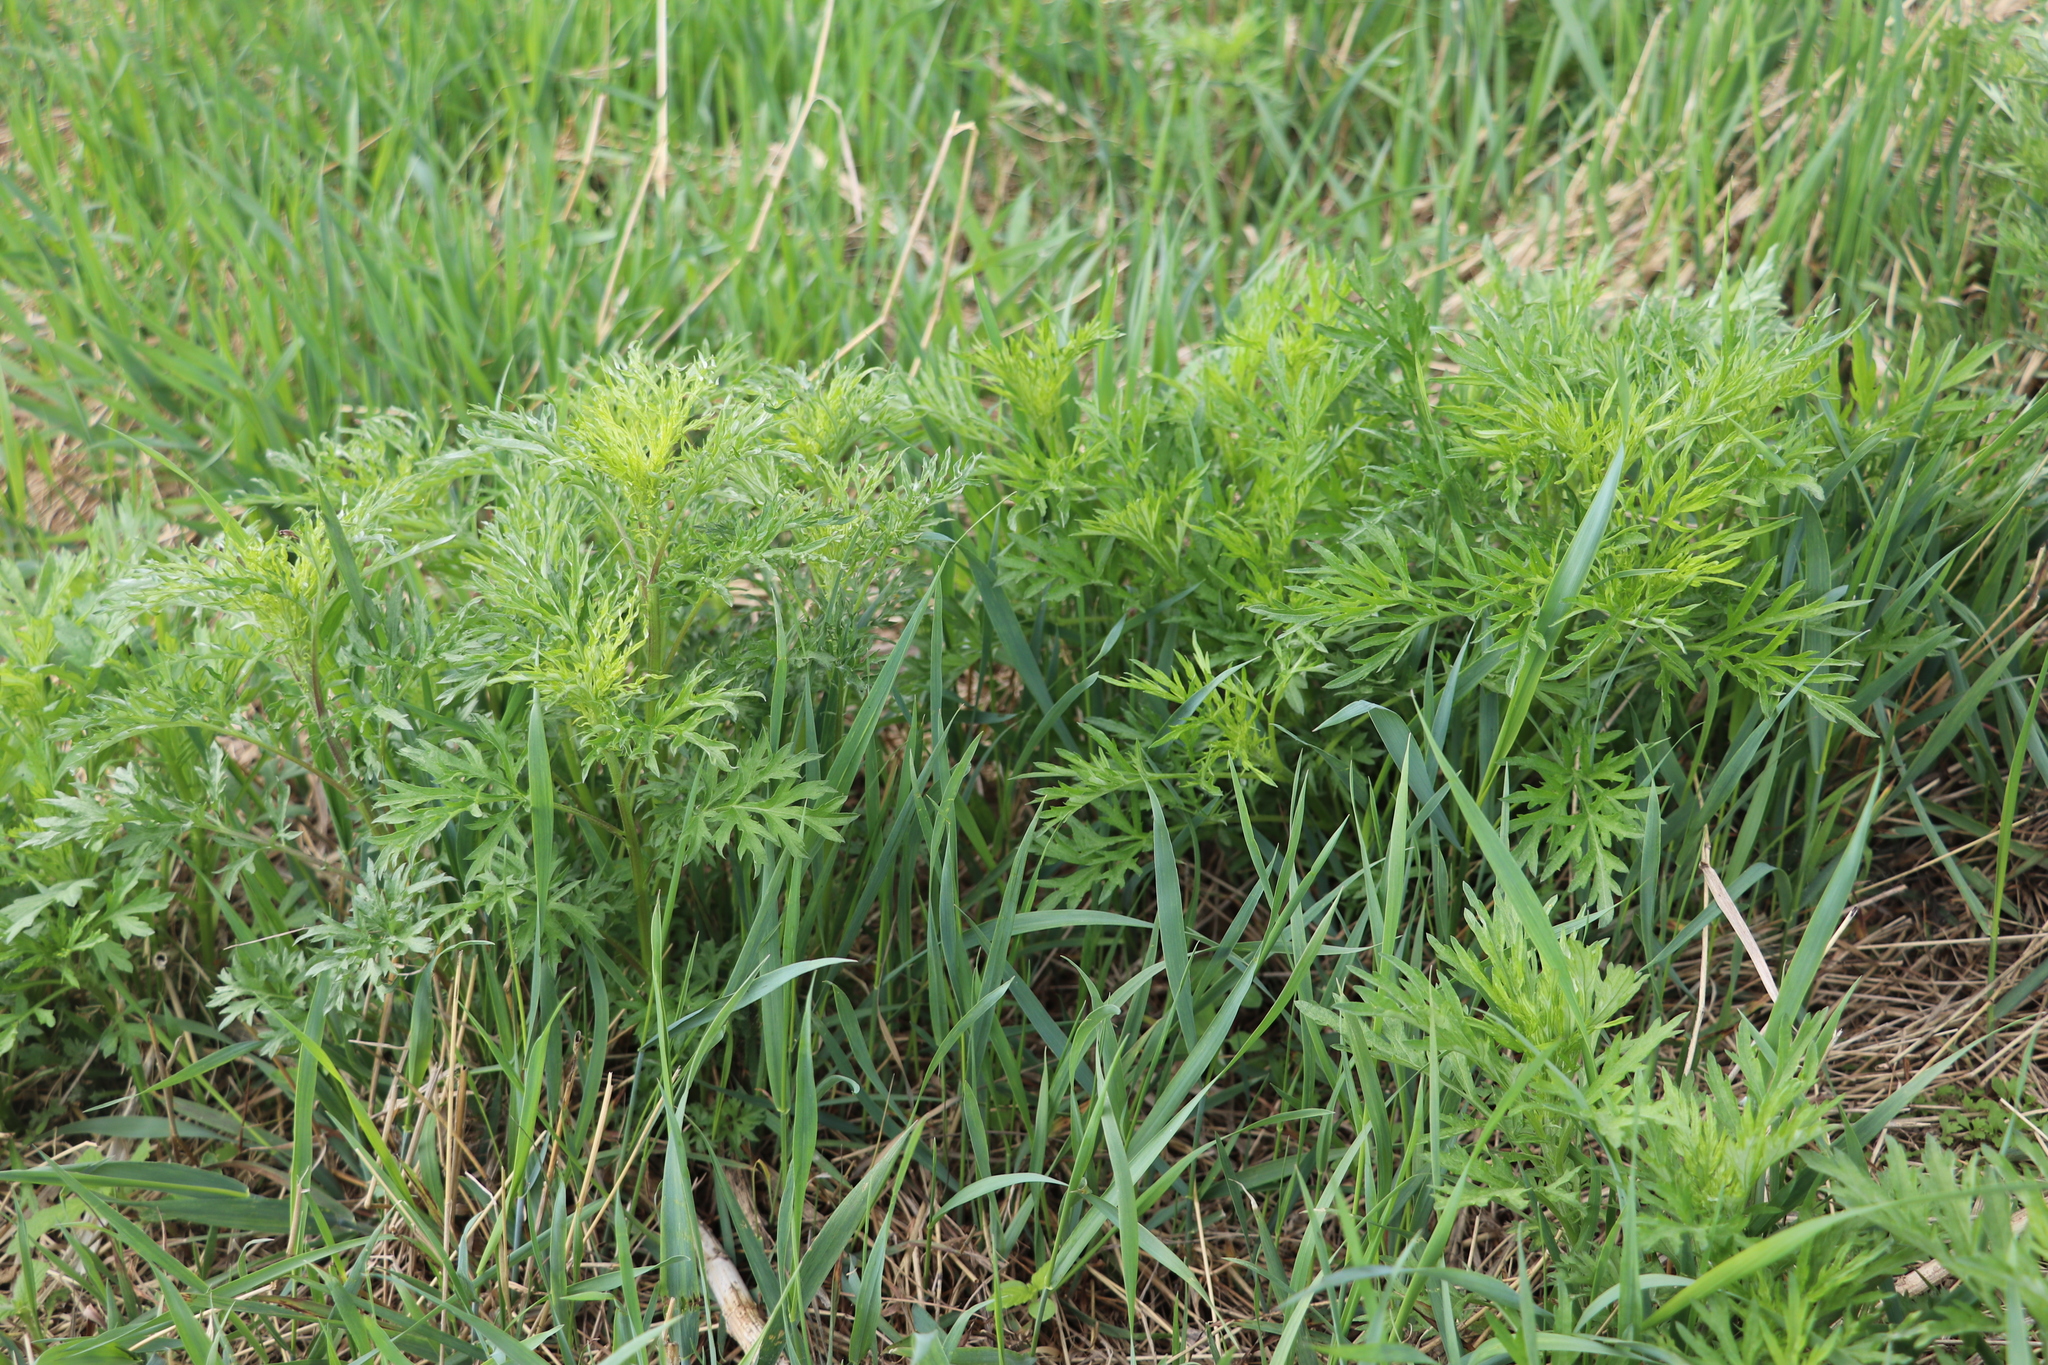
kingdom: Plantae
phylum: Tracheophyta
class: Magnoliopsida
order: Asterales
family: Asteraceae
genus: Artemisia
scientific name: Artemisia vulgaris
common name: Mugwort
